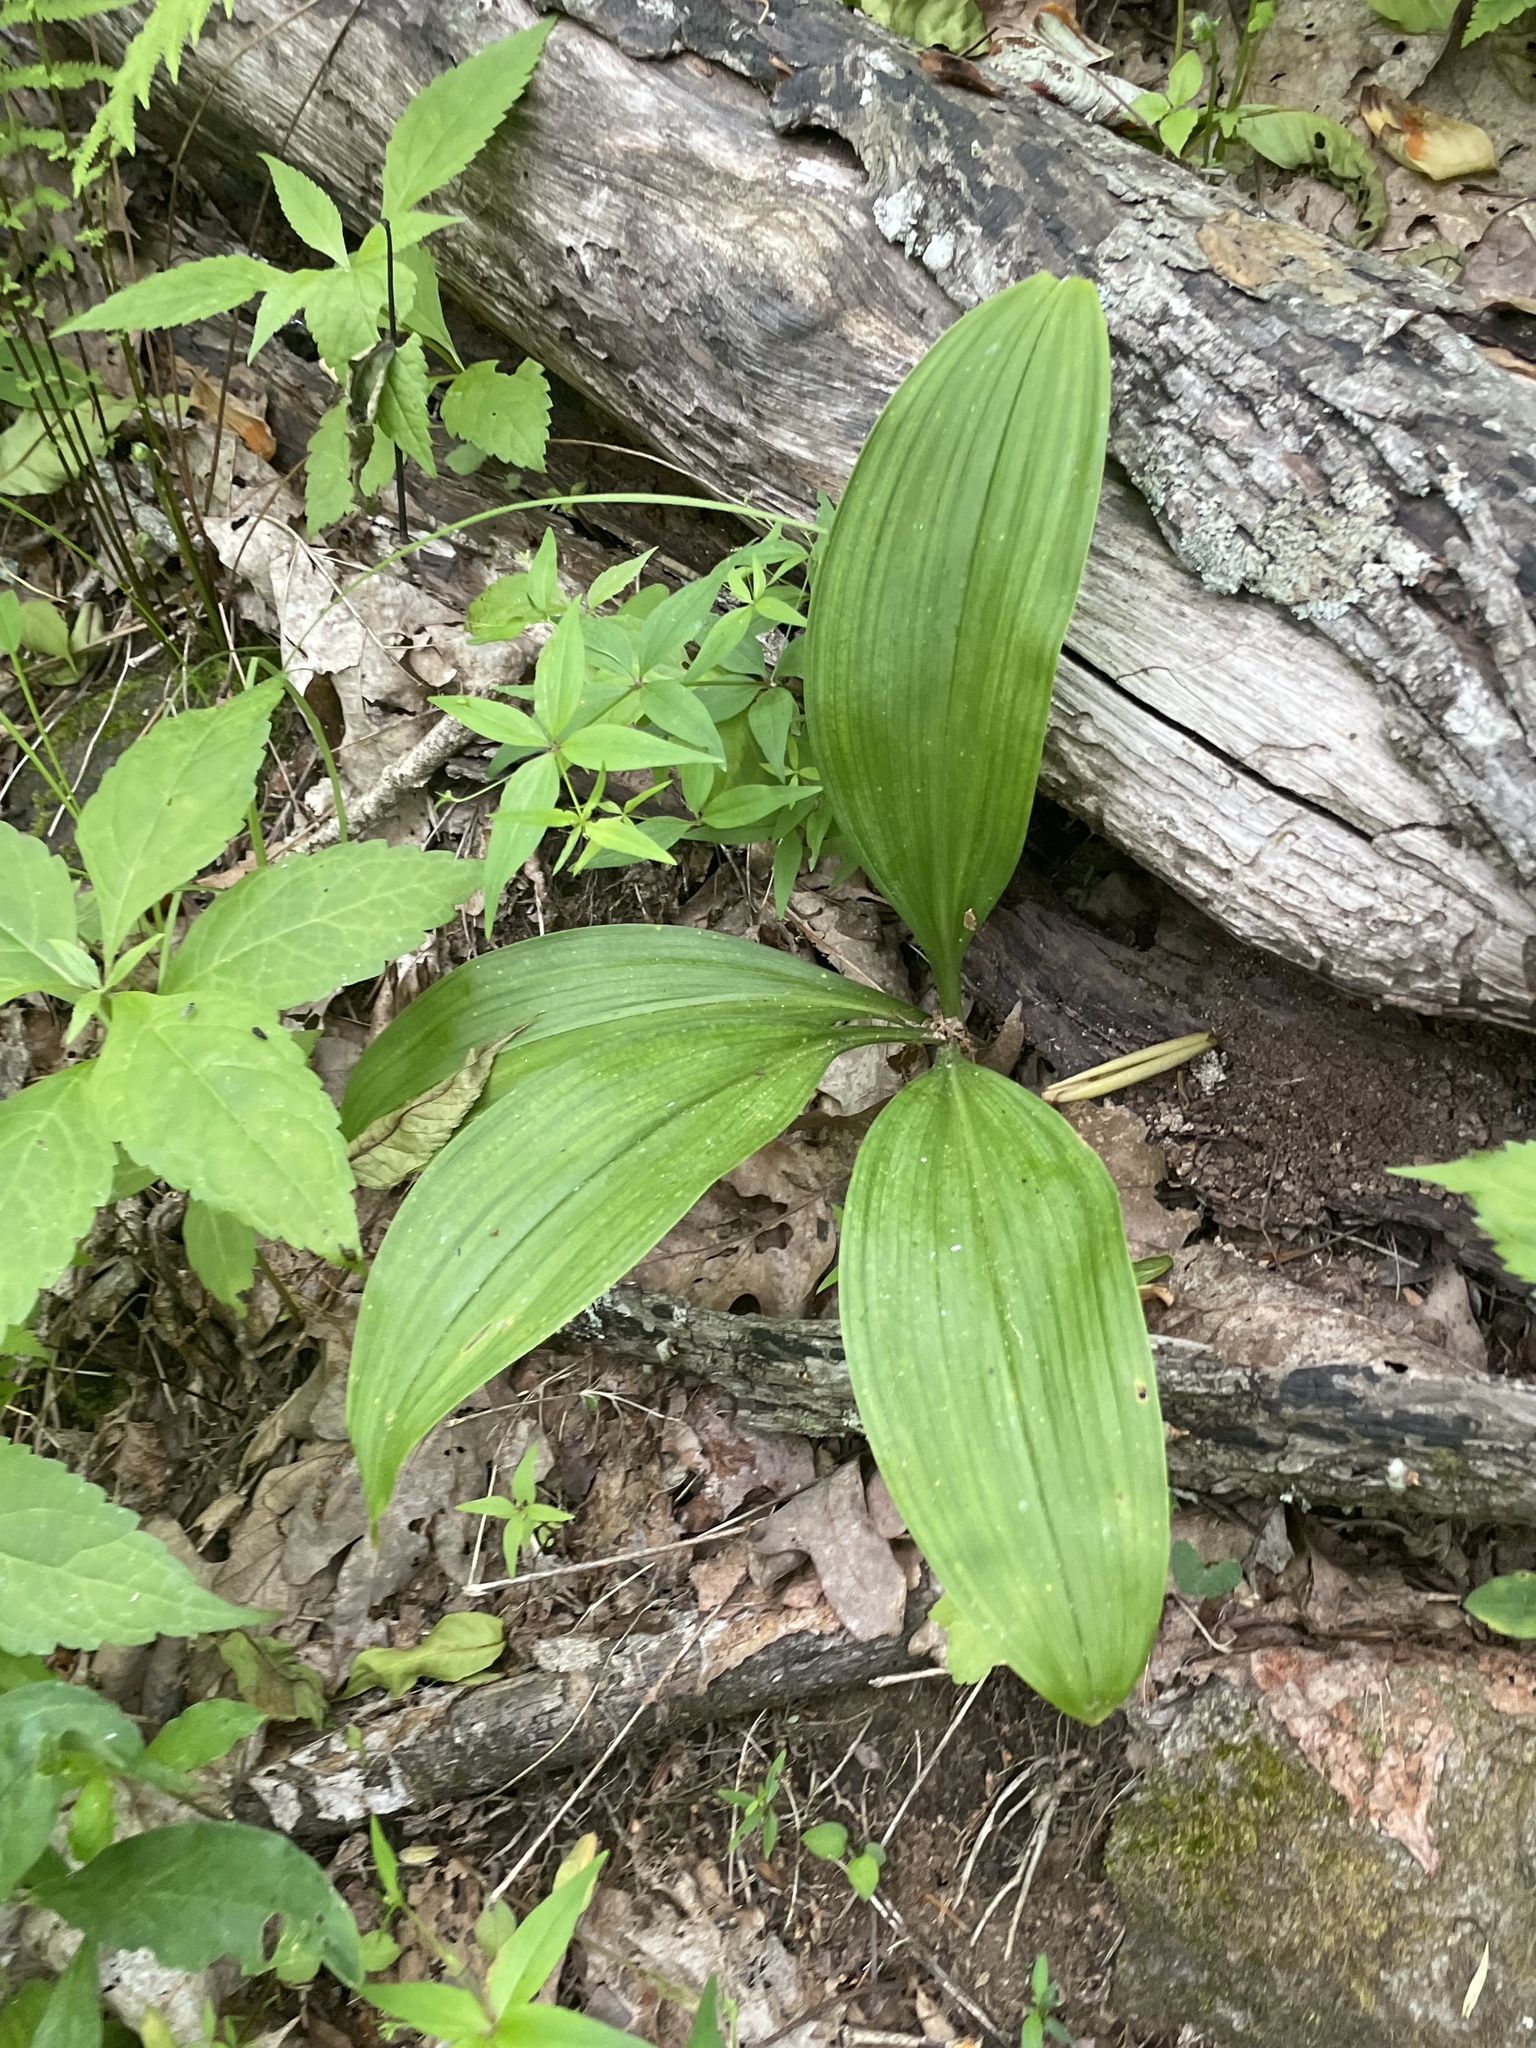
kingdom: Plantae
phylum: Tracheophyta
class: Liliopsida
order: Liliales
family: Liliaceae
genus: Clintonia
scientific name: Clintonia umbellulata
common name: Speckle wood-lily
